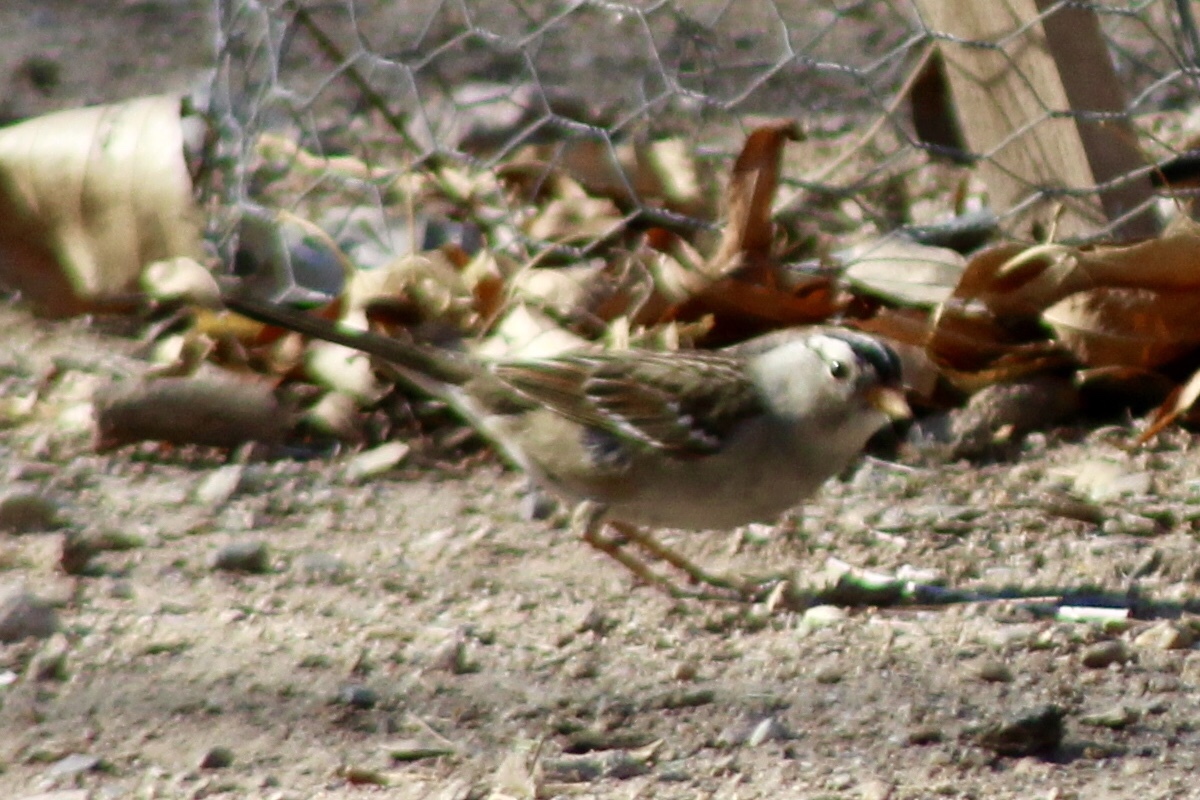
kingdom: Animalia
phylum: Chordata
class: Aves
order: Passeriformes
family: Passerellidae
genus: Zonotrichia
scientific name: Zonotrichia leucophrys
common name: White-crowned sparrow
